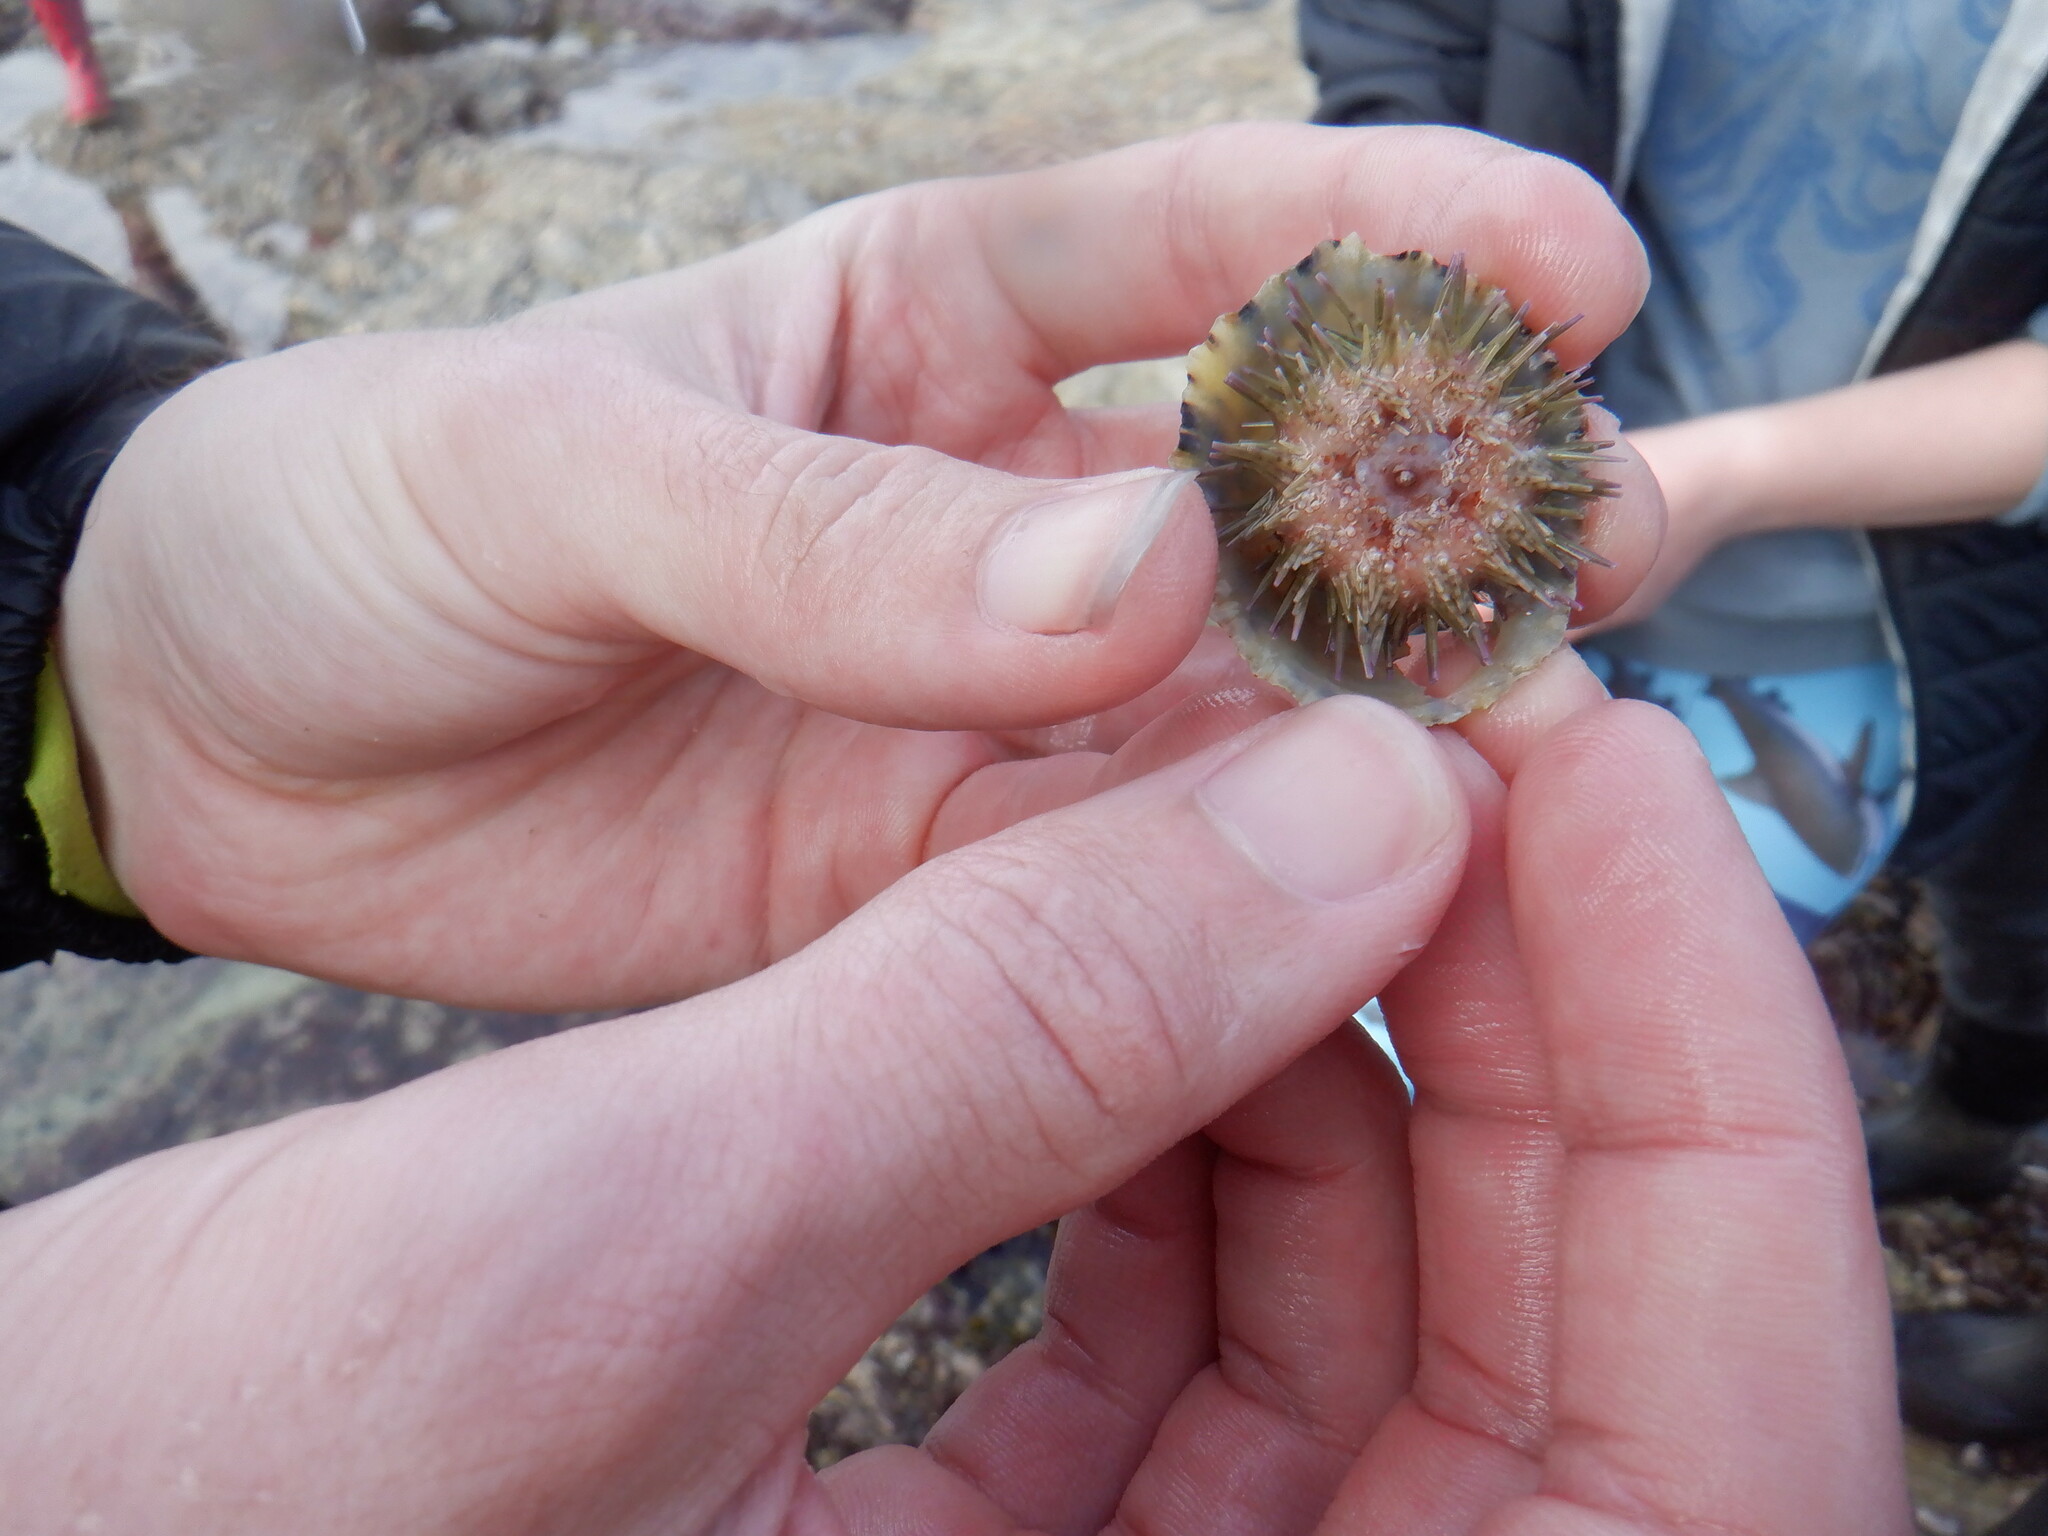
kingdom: Animalia
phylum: Echinodermata
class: Echinoidea
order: Camarodonta
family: Parechinidae
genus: Psammechinus
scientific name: Psammechinus miliaris
